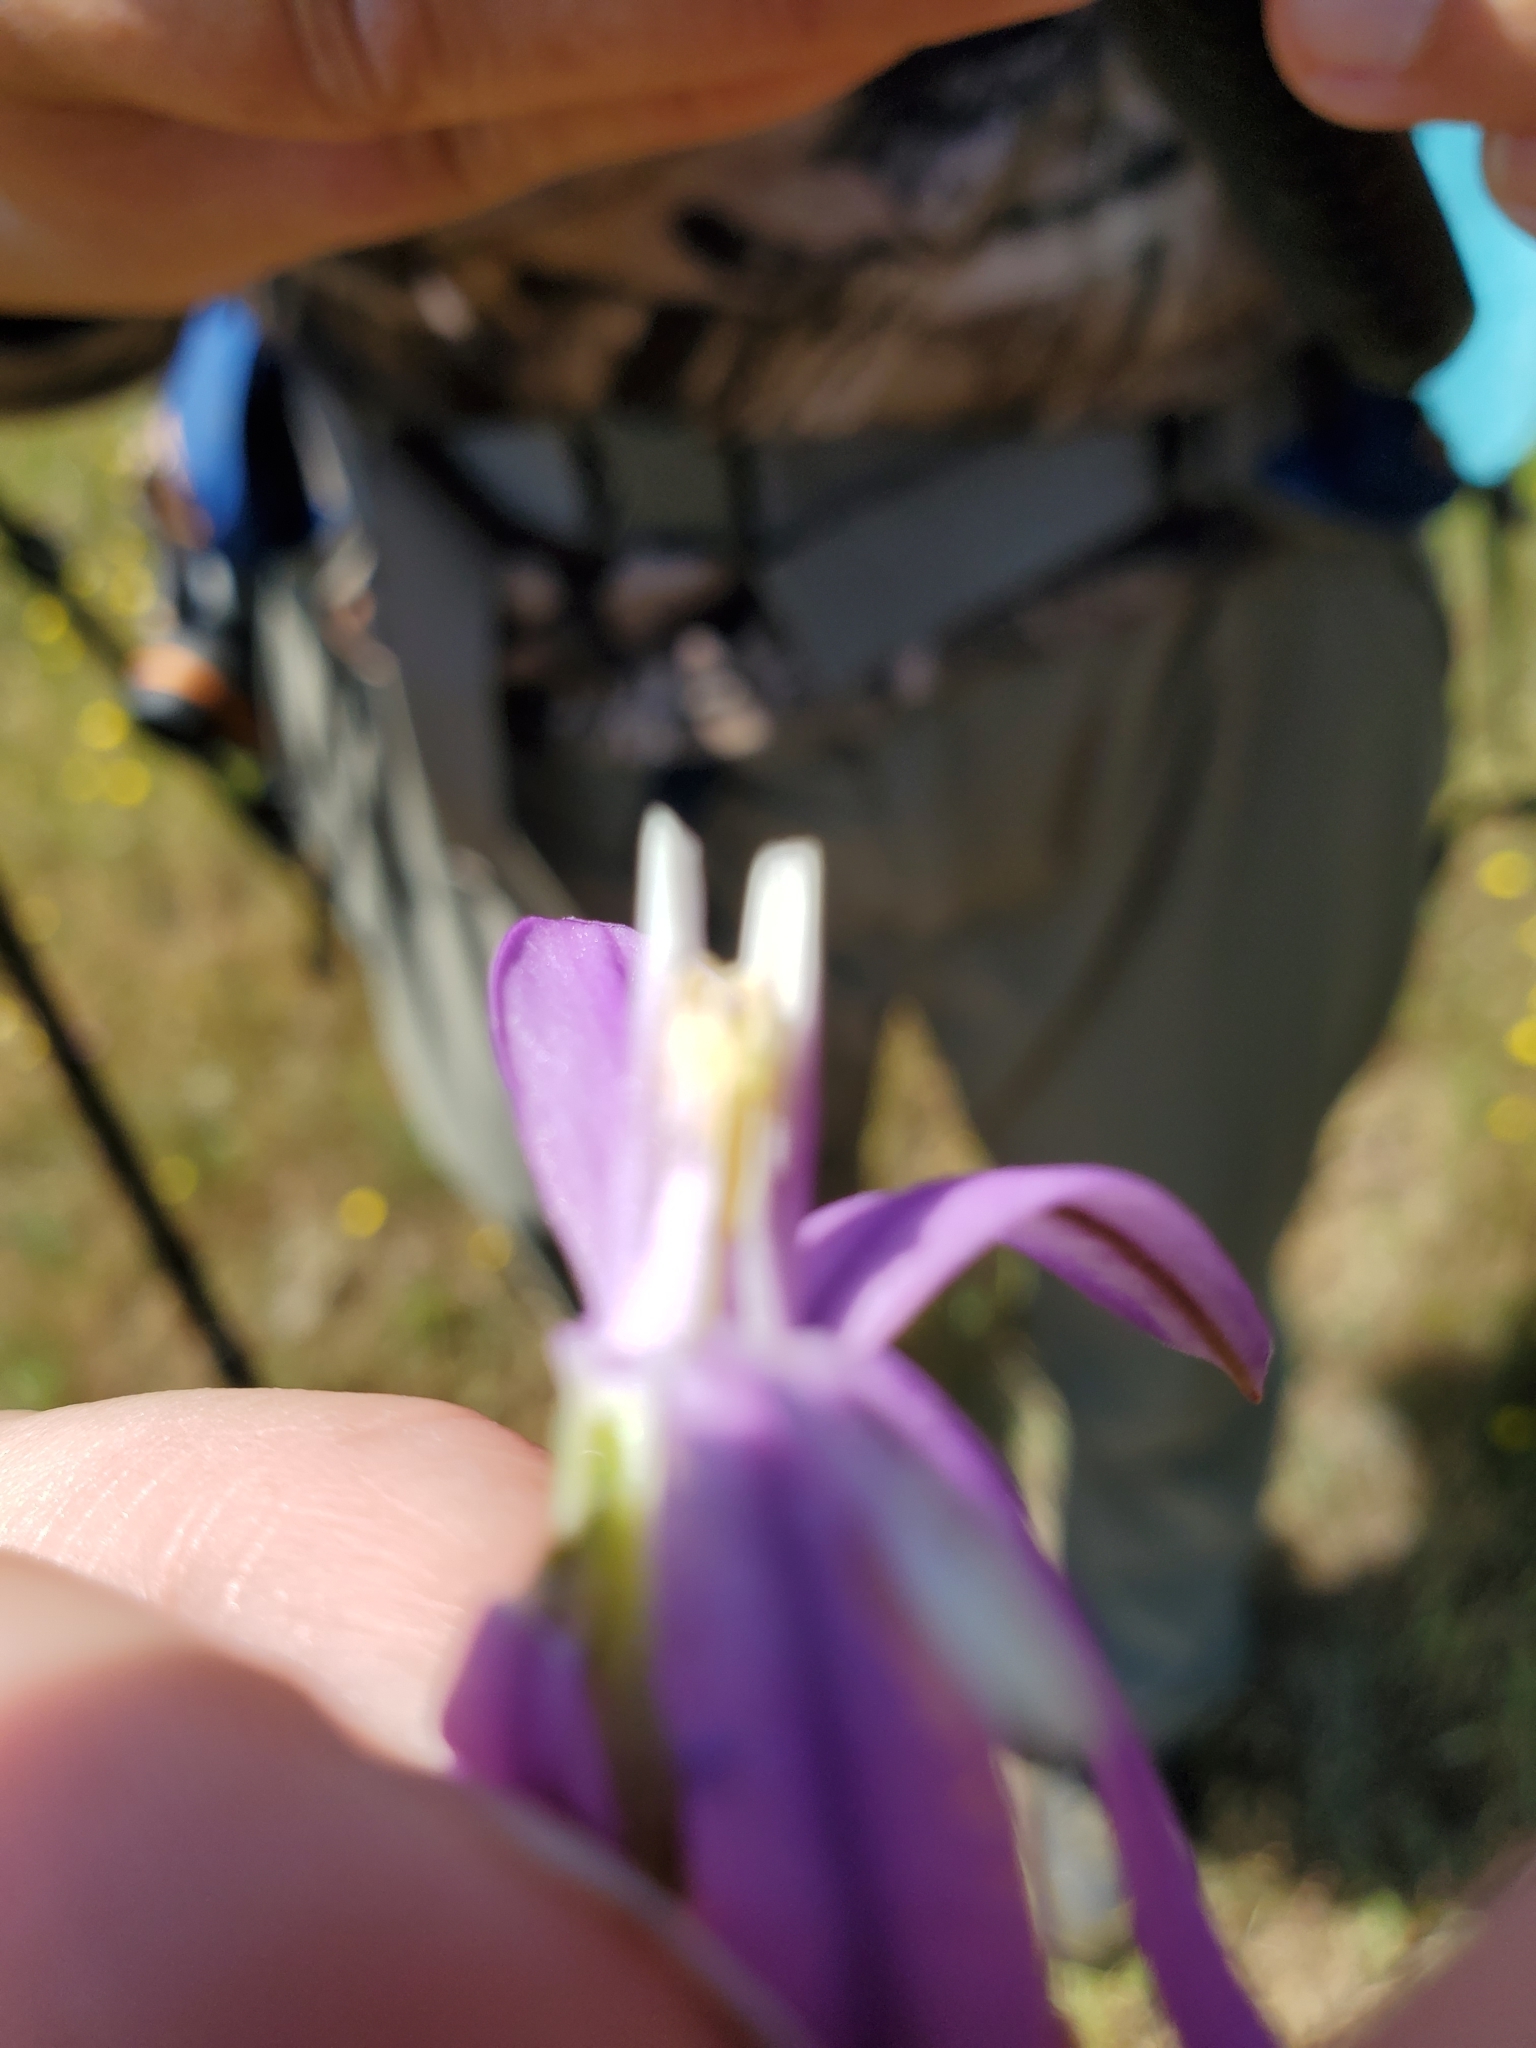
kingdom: Plantae
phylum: Tracheophyta
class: Liliopsida
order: Asparagales
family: Asparagaceae
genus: Brodiaea
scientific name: Brodiaea appendiculata
